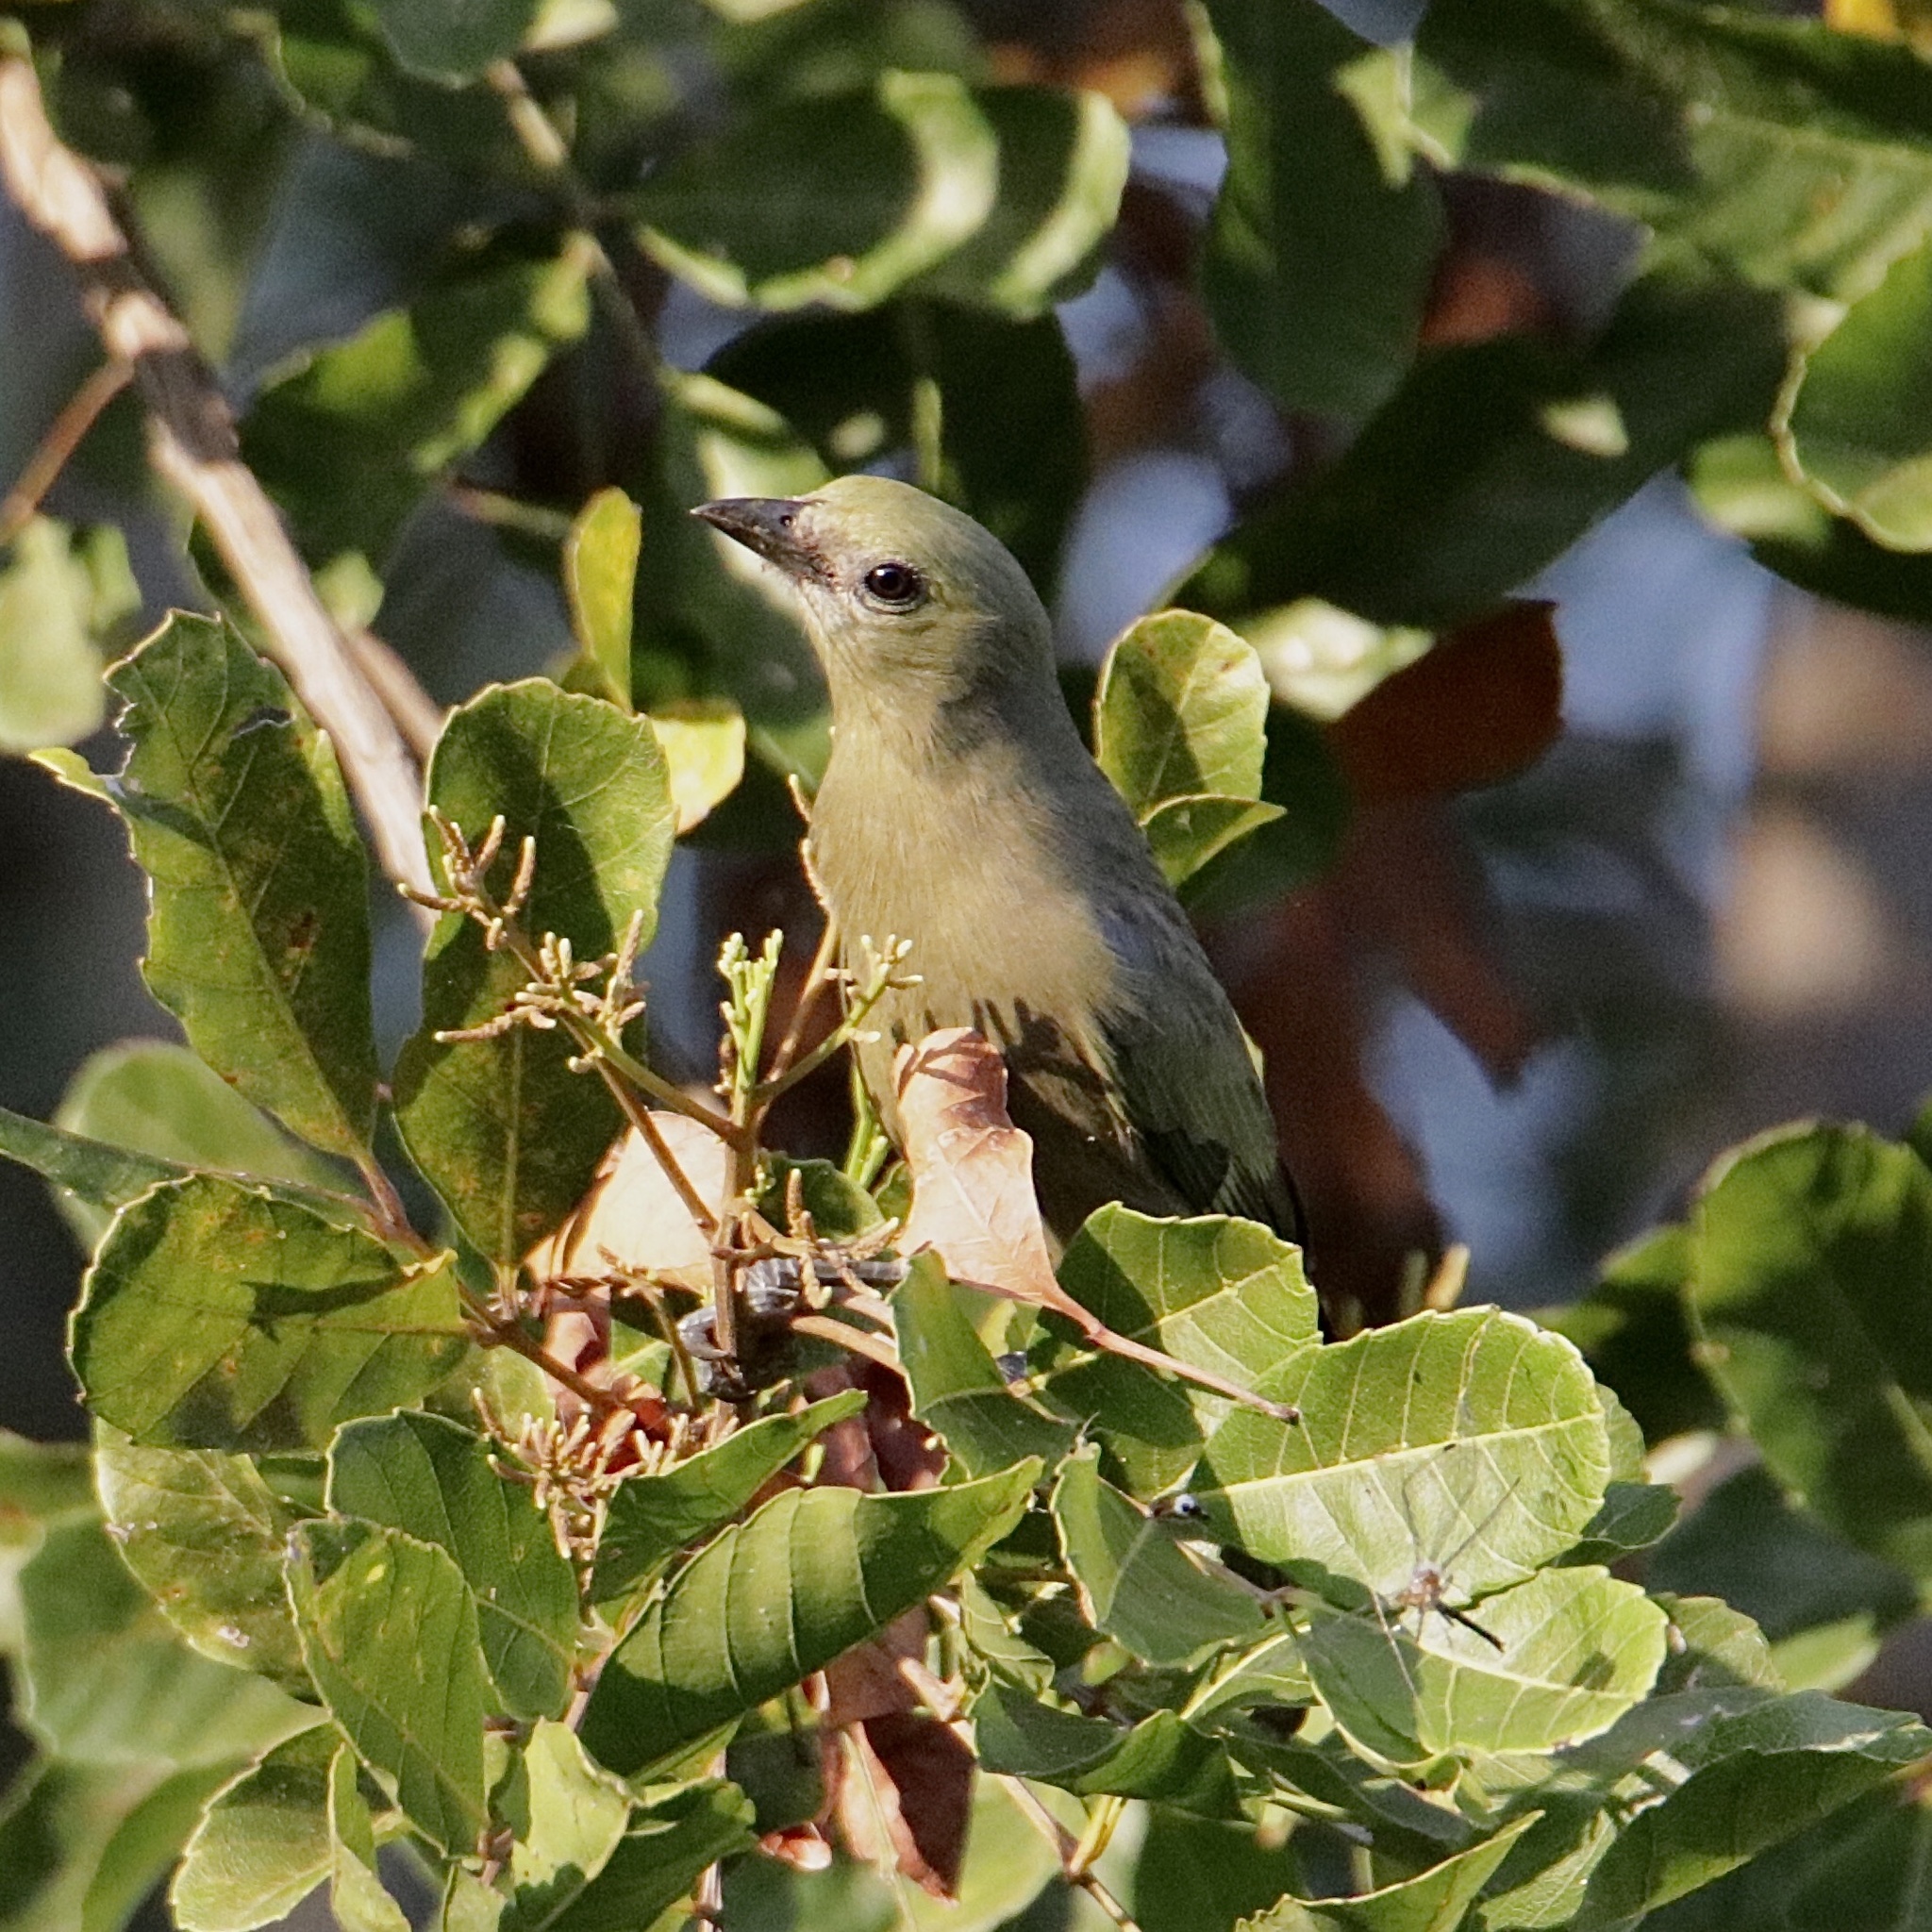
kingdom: Animalia
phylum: Chordata
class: Aves
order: Passeriformes
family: Thraupidae
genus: Thraupis
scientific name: Thraupis palmarum
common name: Palm tanager
